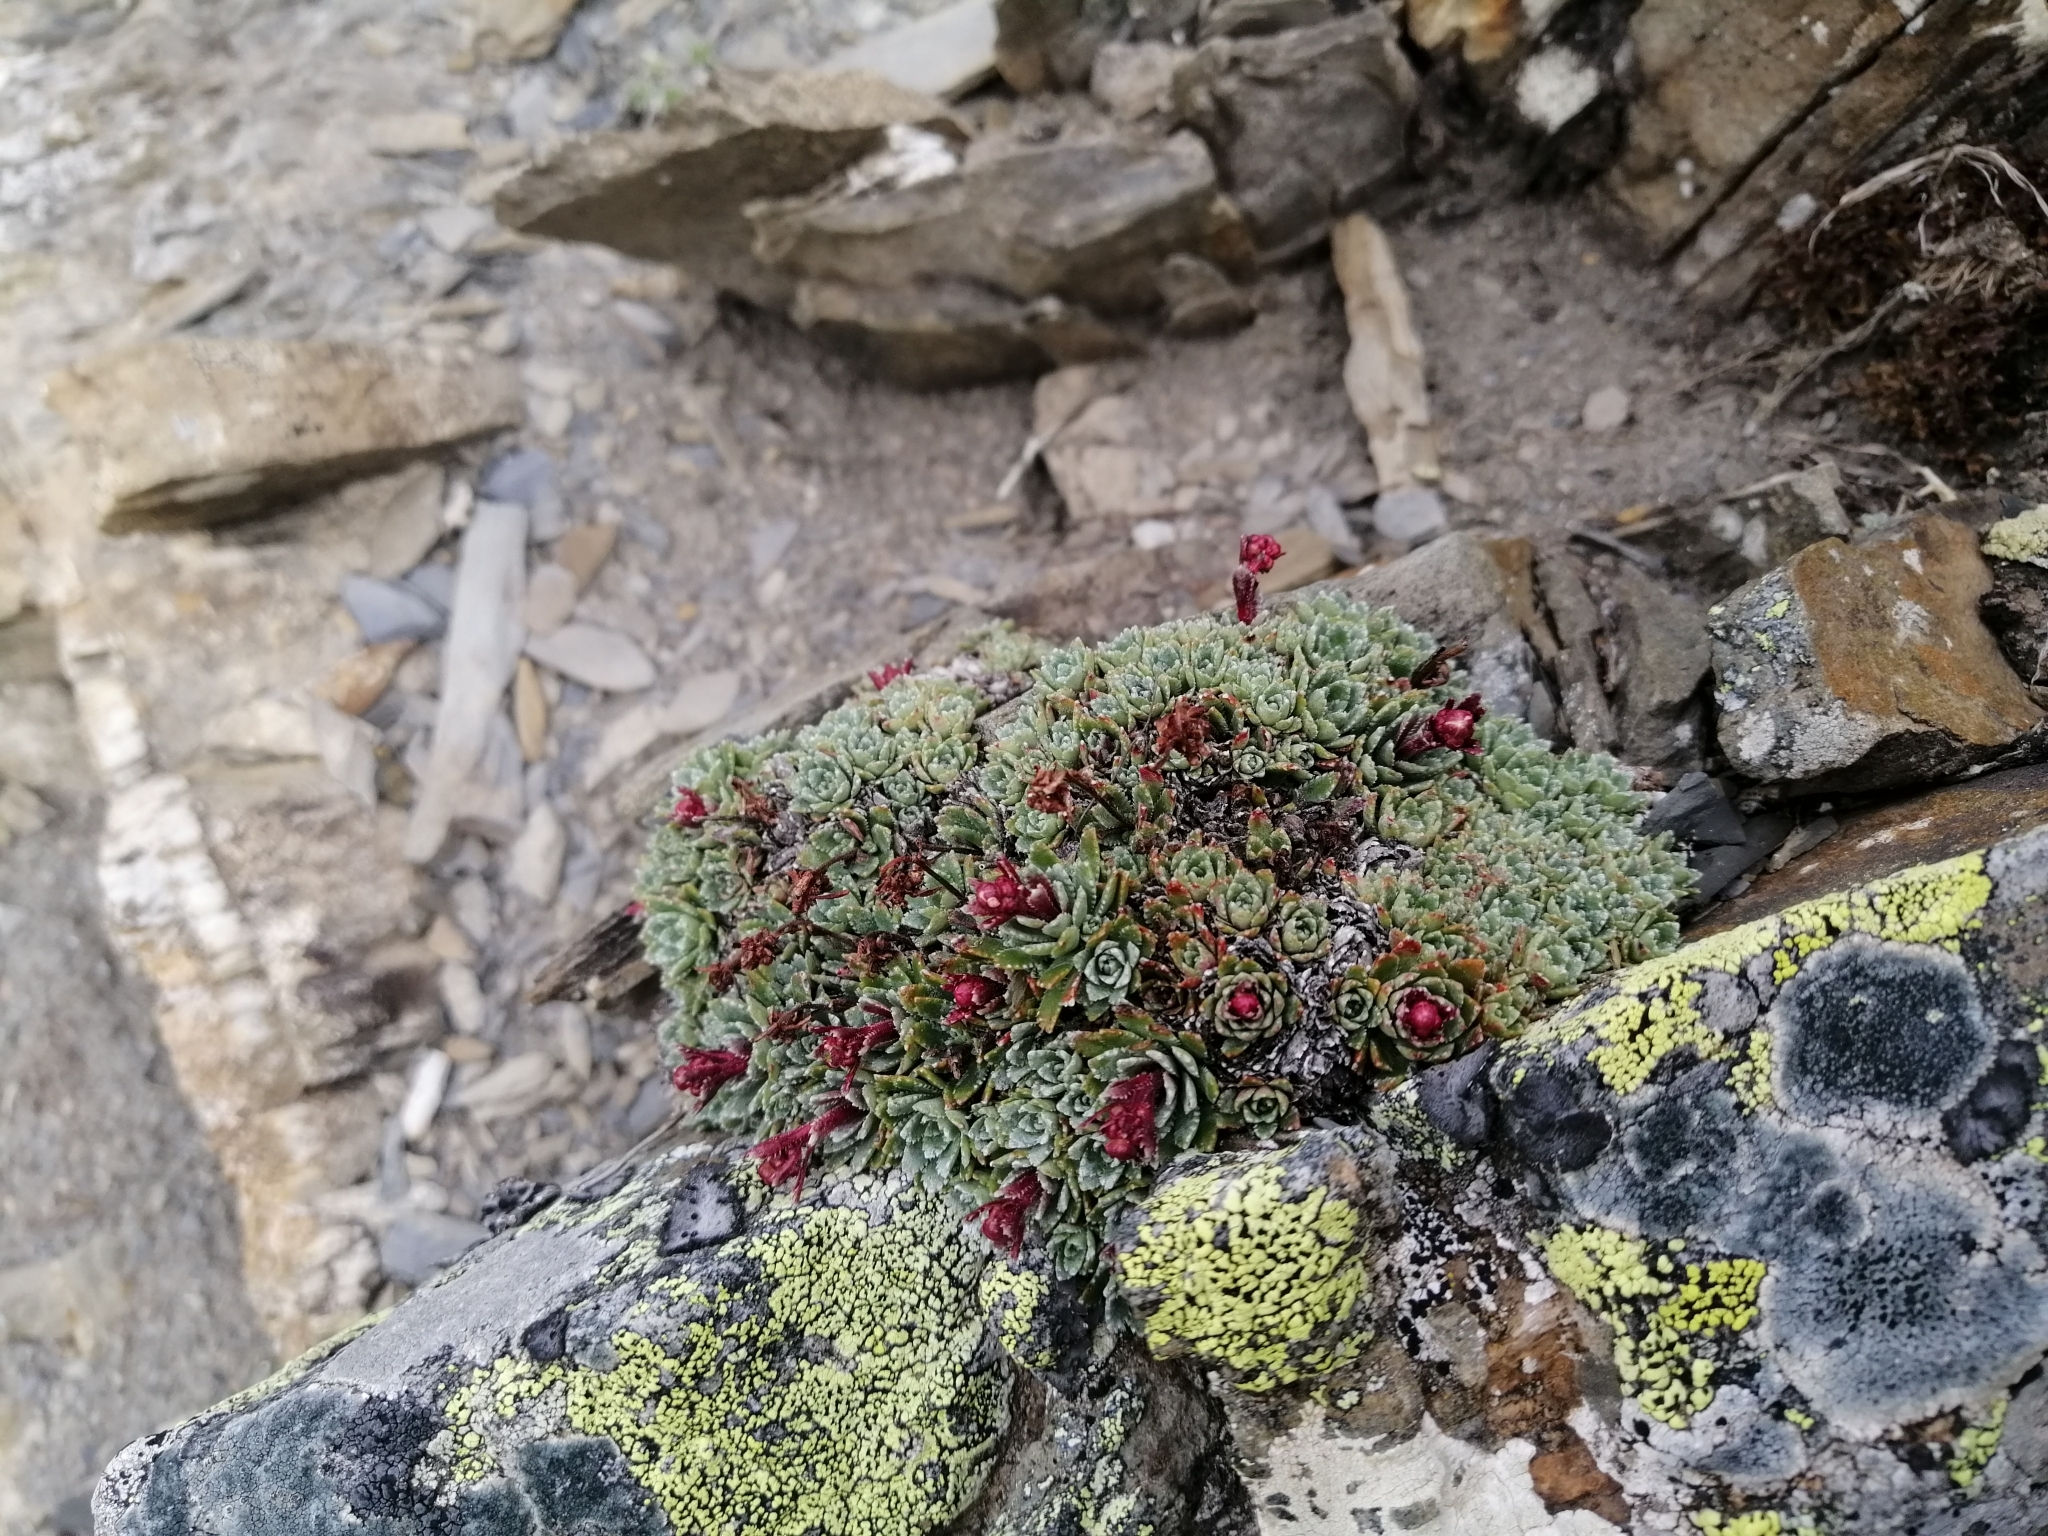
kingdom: Plantae
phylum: Tracheophyta
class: Magnoliopsida
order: Saxifragales
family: Saxifragaceae
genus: Saxifraga
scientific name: Saxifraga paniculata
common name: Livelong saxifrage
